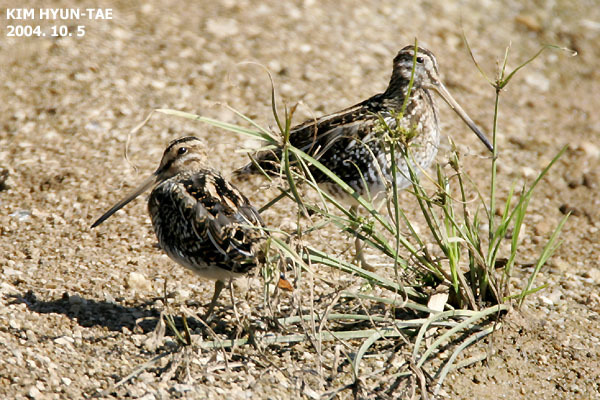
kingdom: Animalia
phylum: Chordata
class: Aves
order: Charadriiformes
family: Scolopacidae
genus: Gallinago
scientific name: Gallinago gallinago
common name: Common snipe
